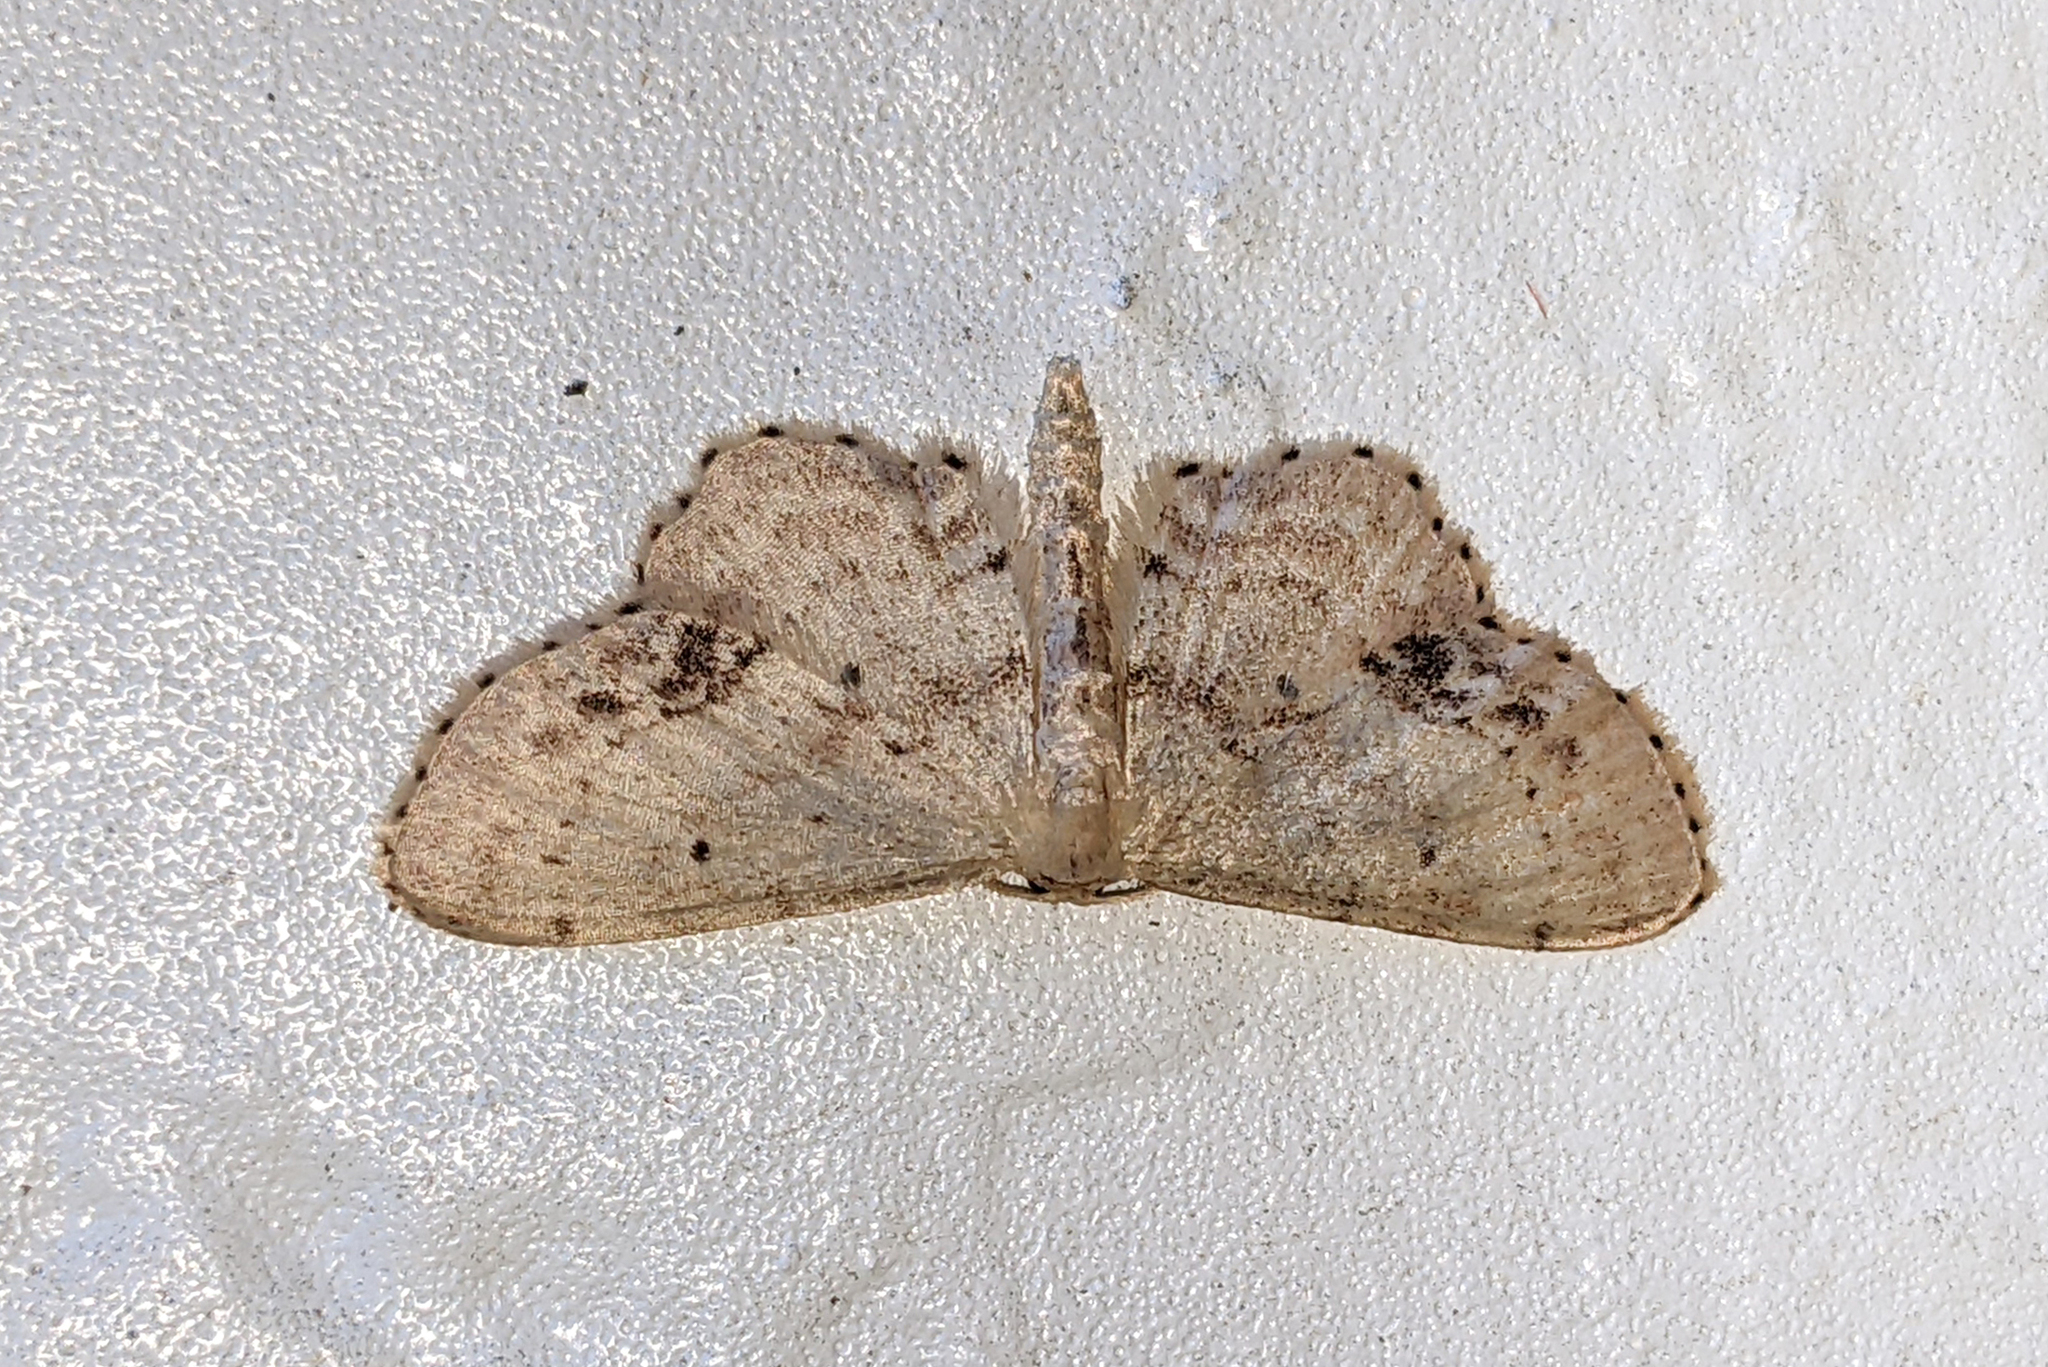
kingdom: Animalia
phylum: Arthropoda
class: Insecta
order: Lepidoptera
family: Geometridae
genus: Idaea
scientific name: Idaea dimidiata
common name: Single-dotted wave
